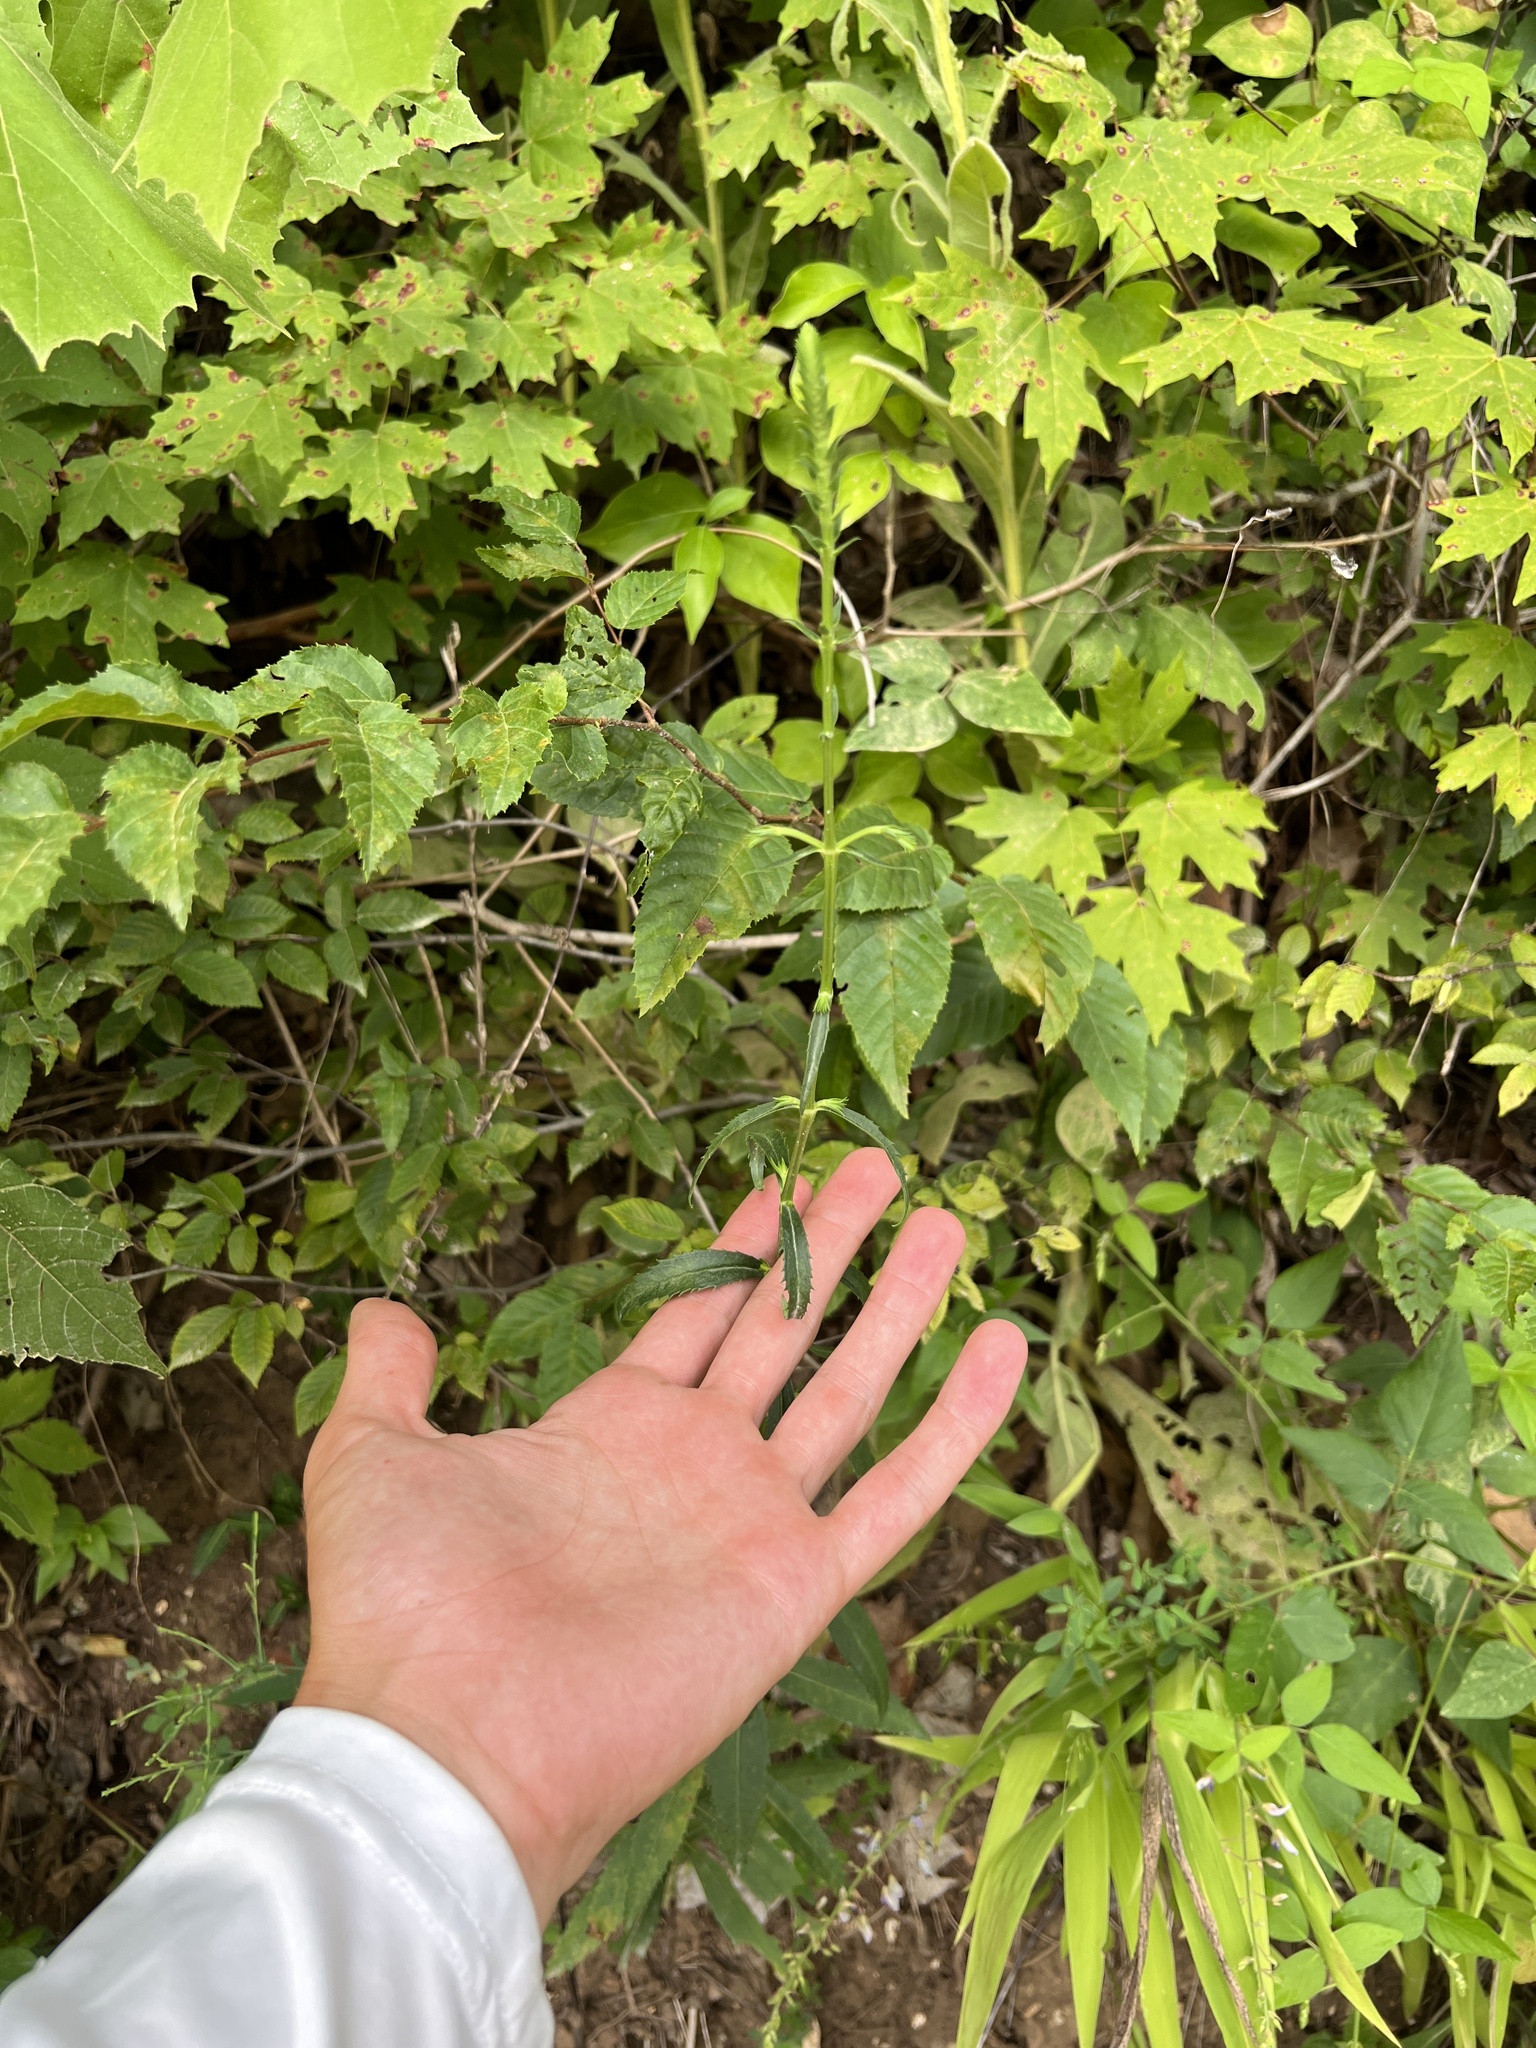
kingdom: Plantae
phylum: Tracheophyta
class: Magnoliopsida
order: Lamiales
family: Lamiaceae
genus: Physostegia
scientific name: Physostegia virginiana
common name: Obedient-plant
